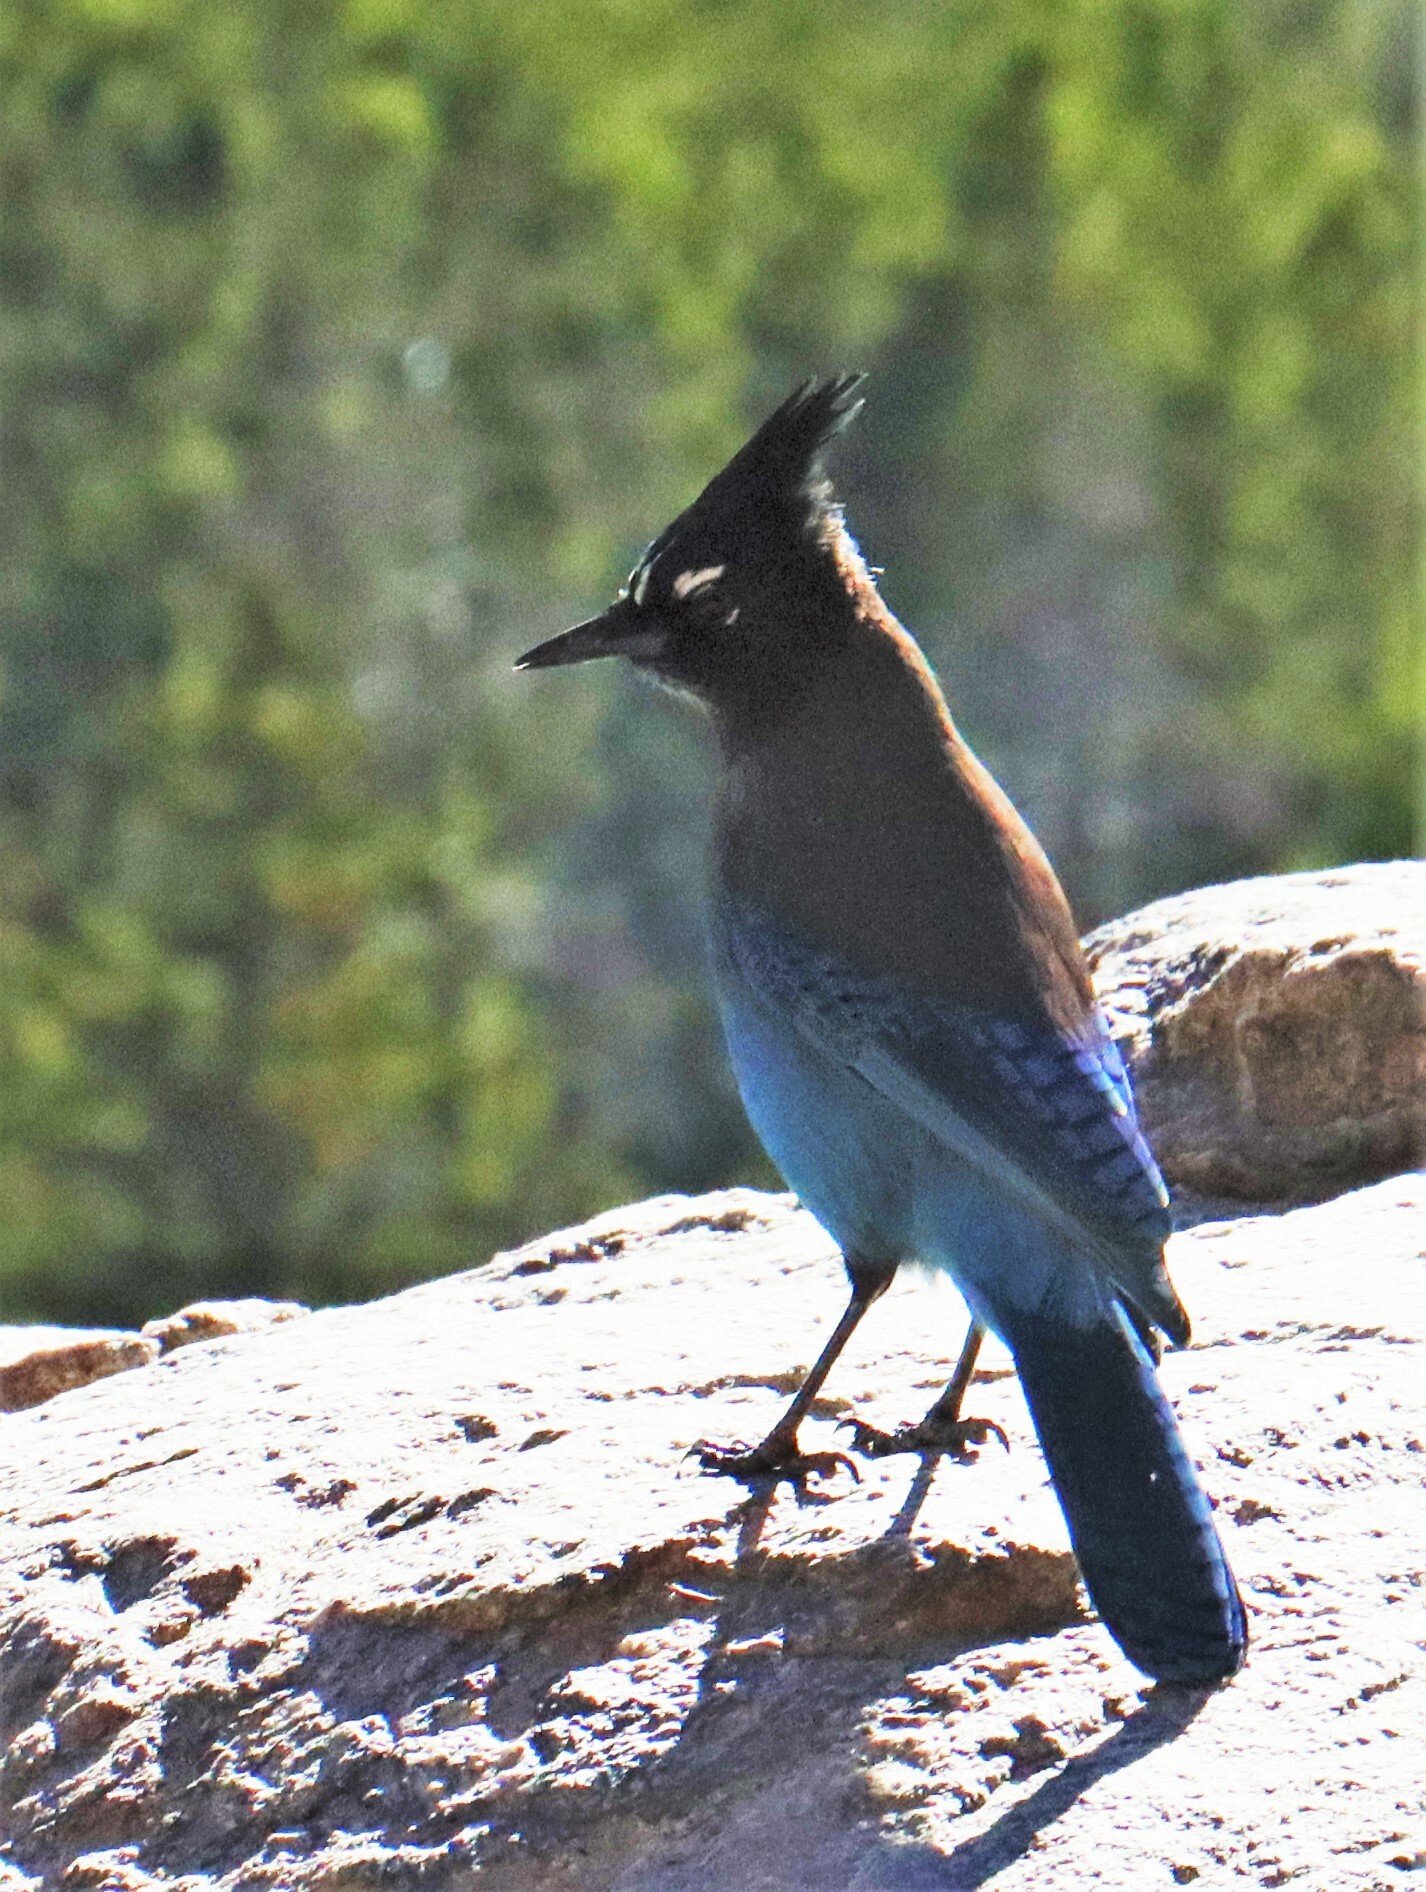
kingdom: Animalia
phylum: Chordata
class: Aves
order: Passeriformes
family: Corvidae
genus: Cyanocitta
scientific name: Cyanocitta stelleri
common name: Steller's jay
